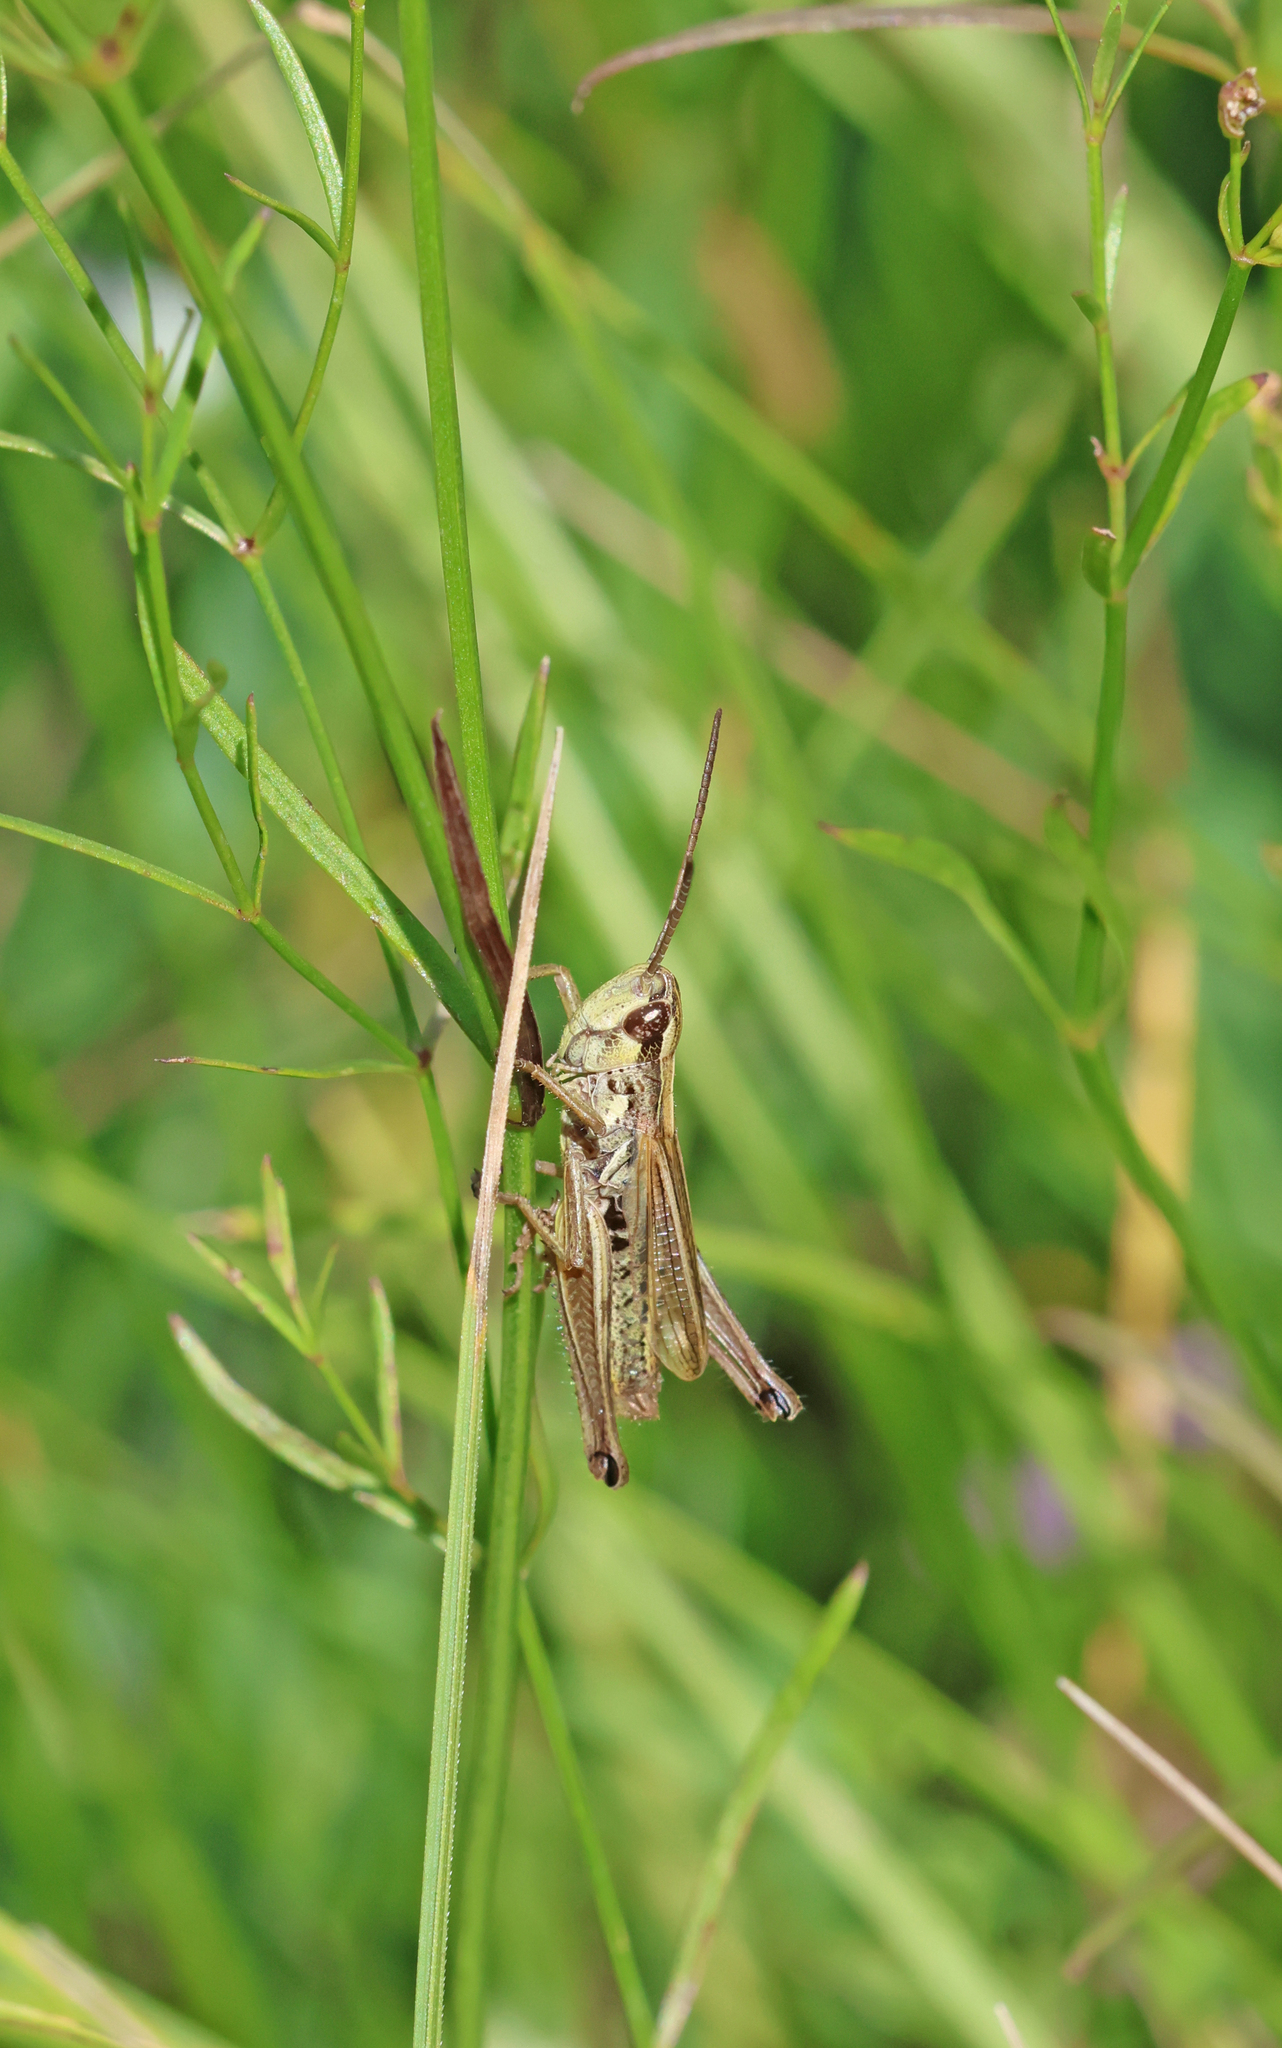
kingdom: Animalia
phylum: Arthropoda
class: Insecta
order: Orthoptera
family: Acrididae
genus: Pseudochorthippus
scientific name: Pseudochorthippus parallelus
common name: Meadow grasshopper
